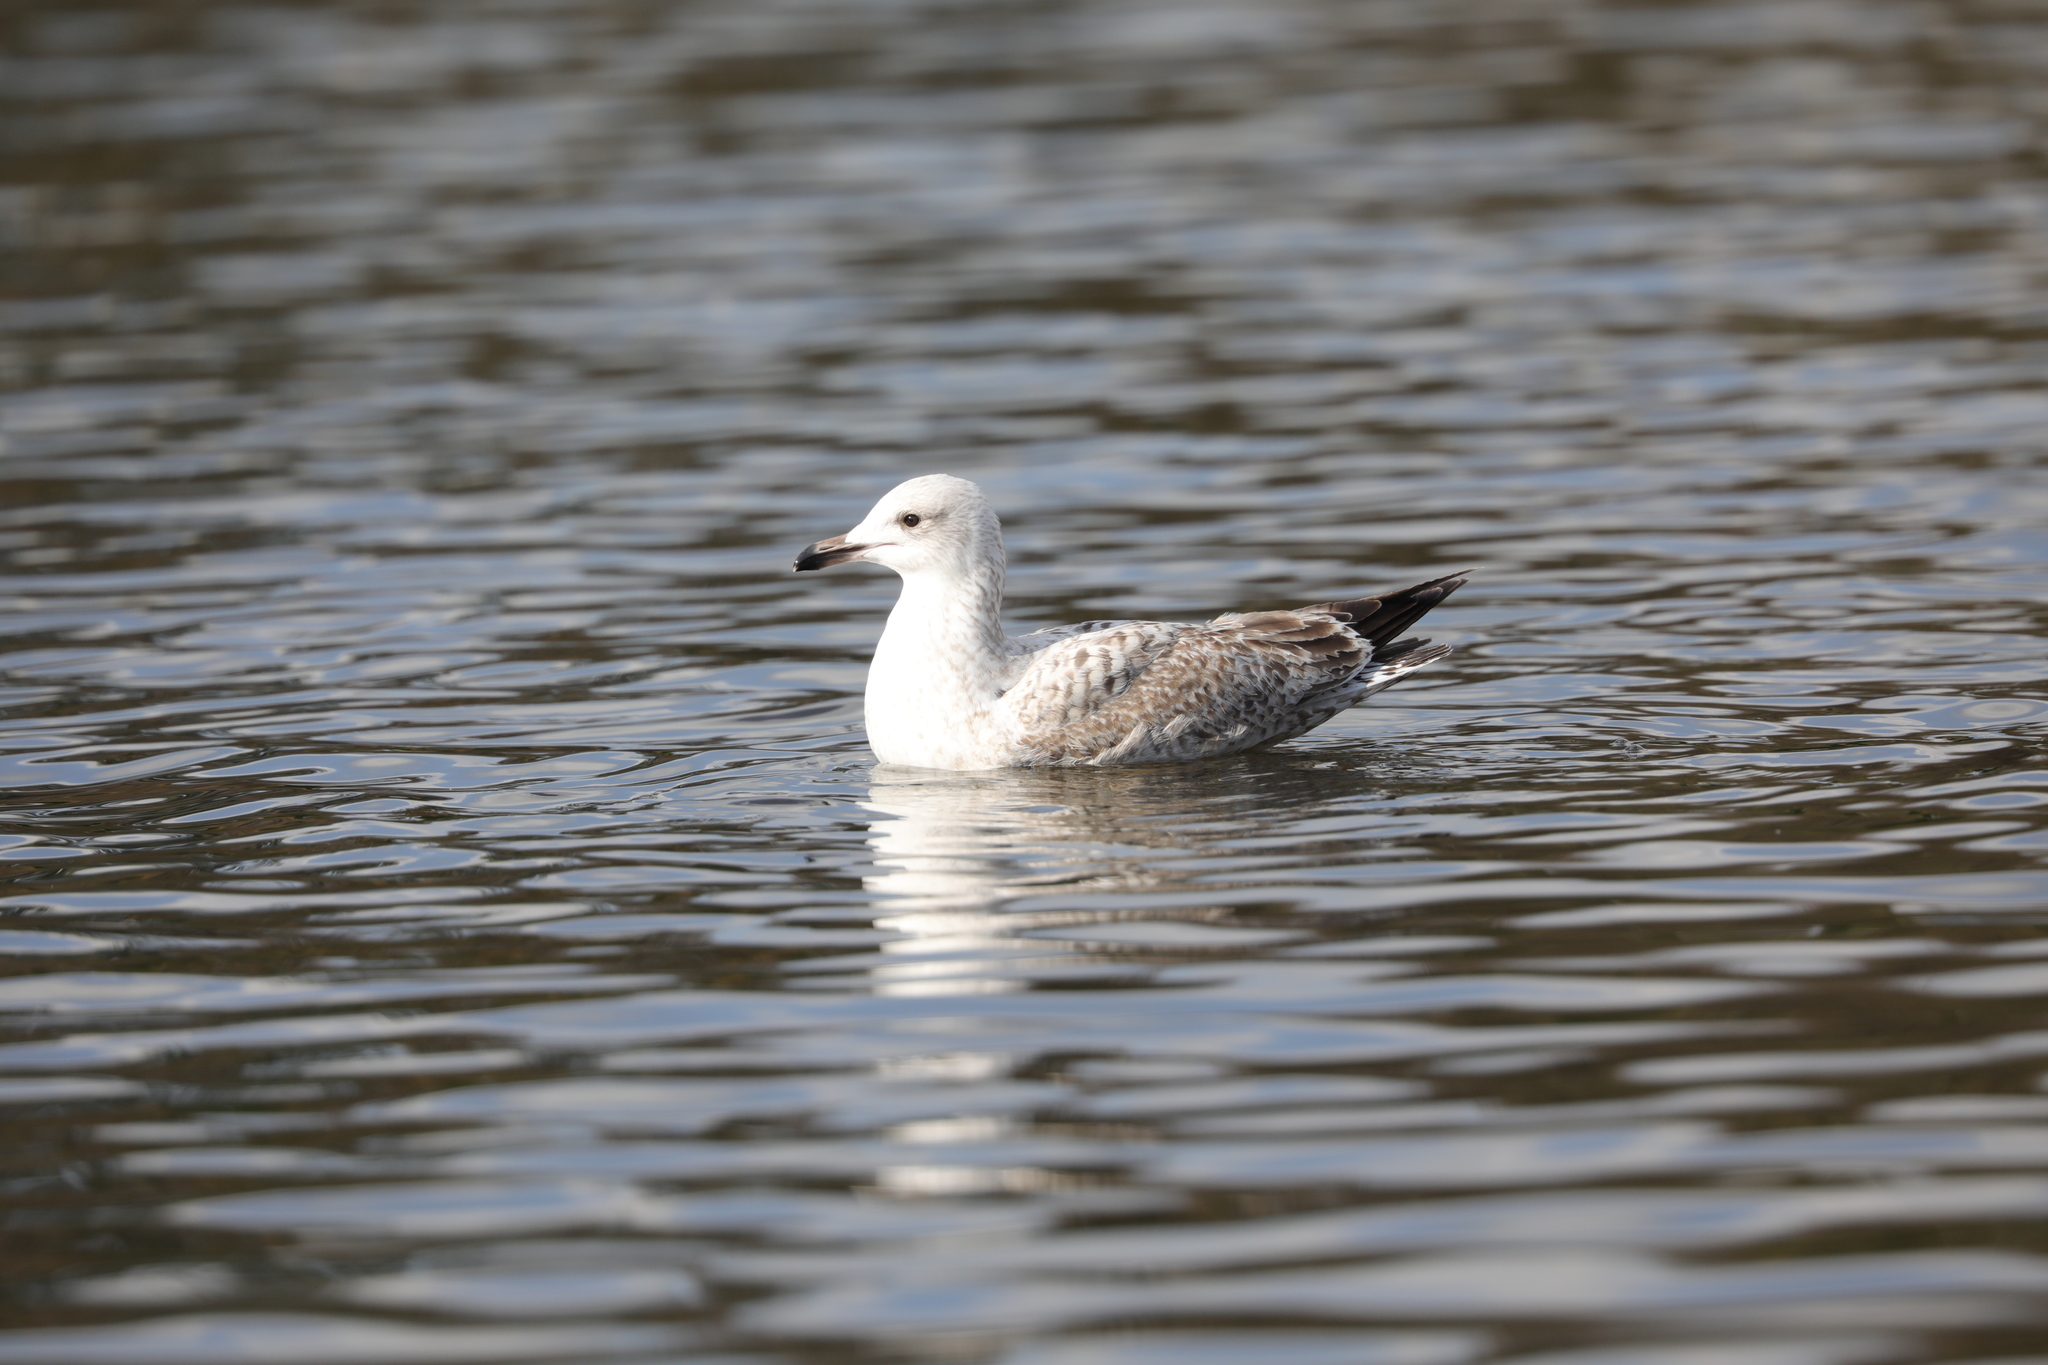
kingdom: Animalia
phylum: Chordata
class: Aves
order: Charadriiformes
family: Laridae
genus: Larus
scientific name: Larus fuscus
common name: Lesser black-backed gull
